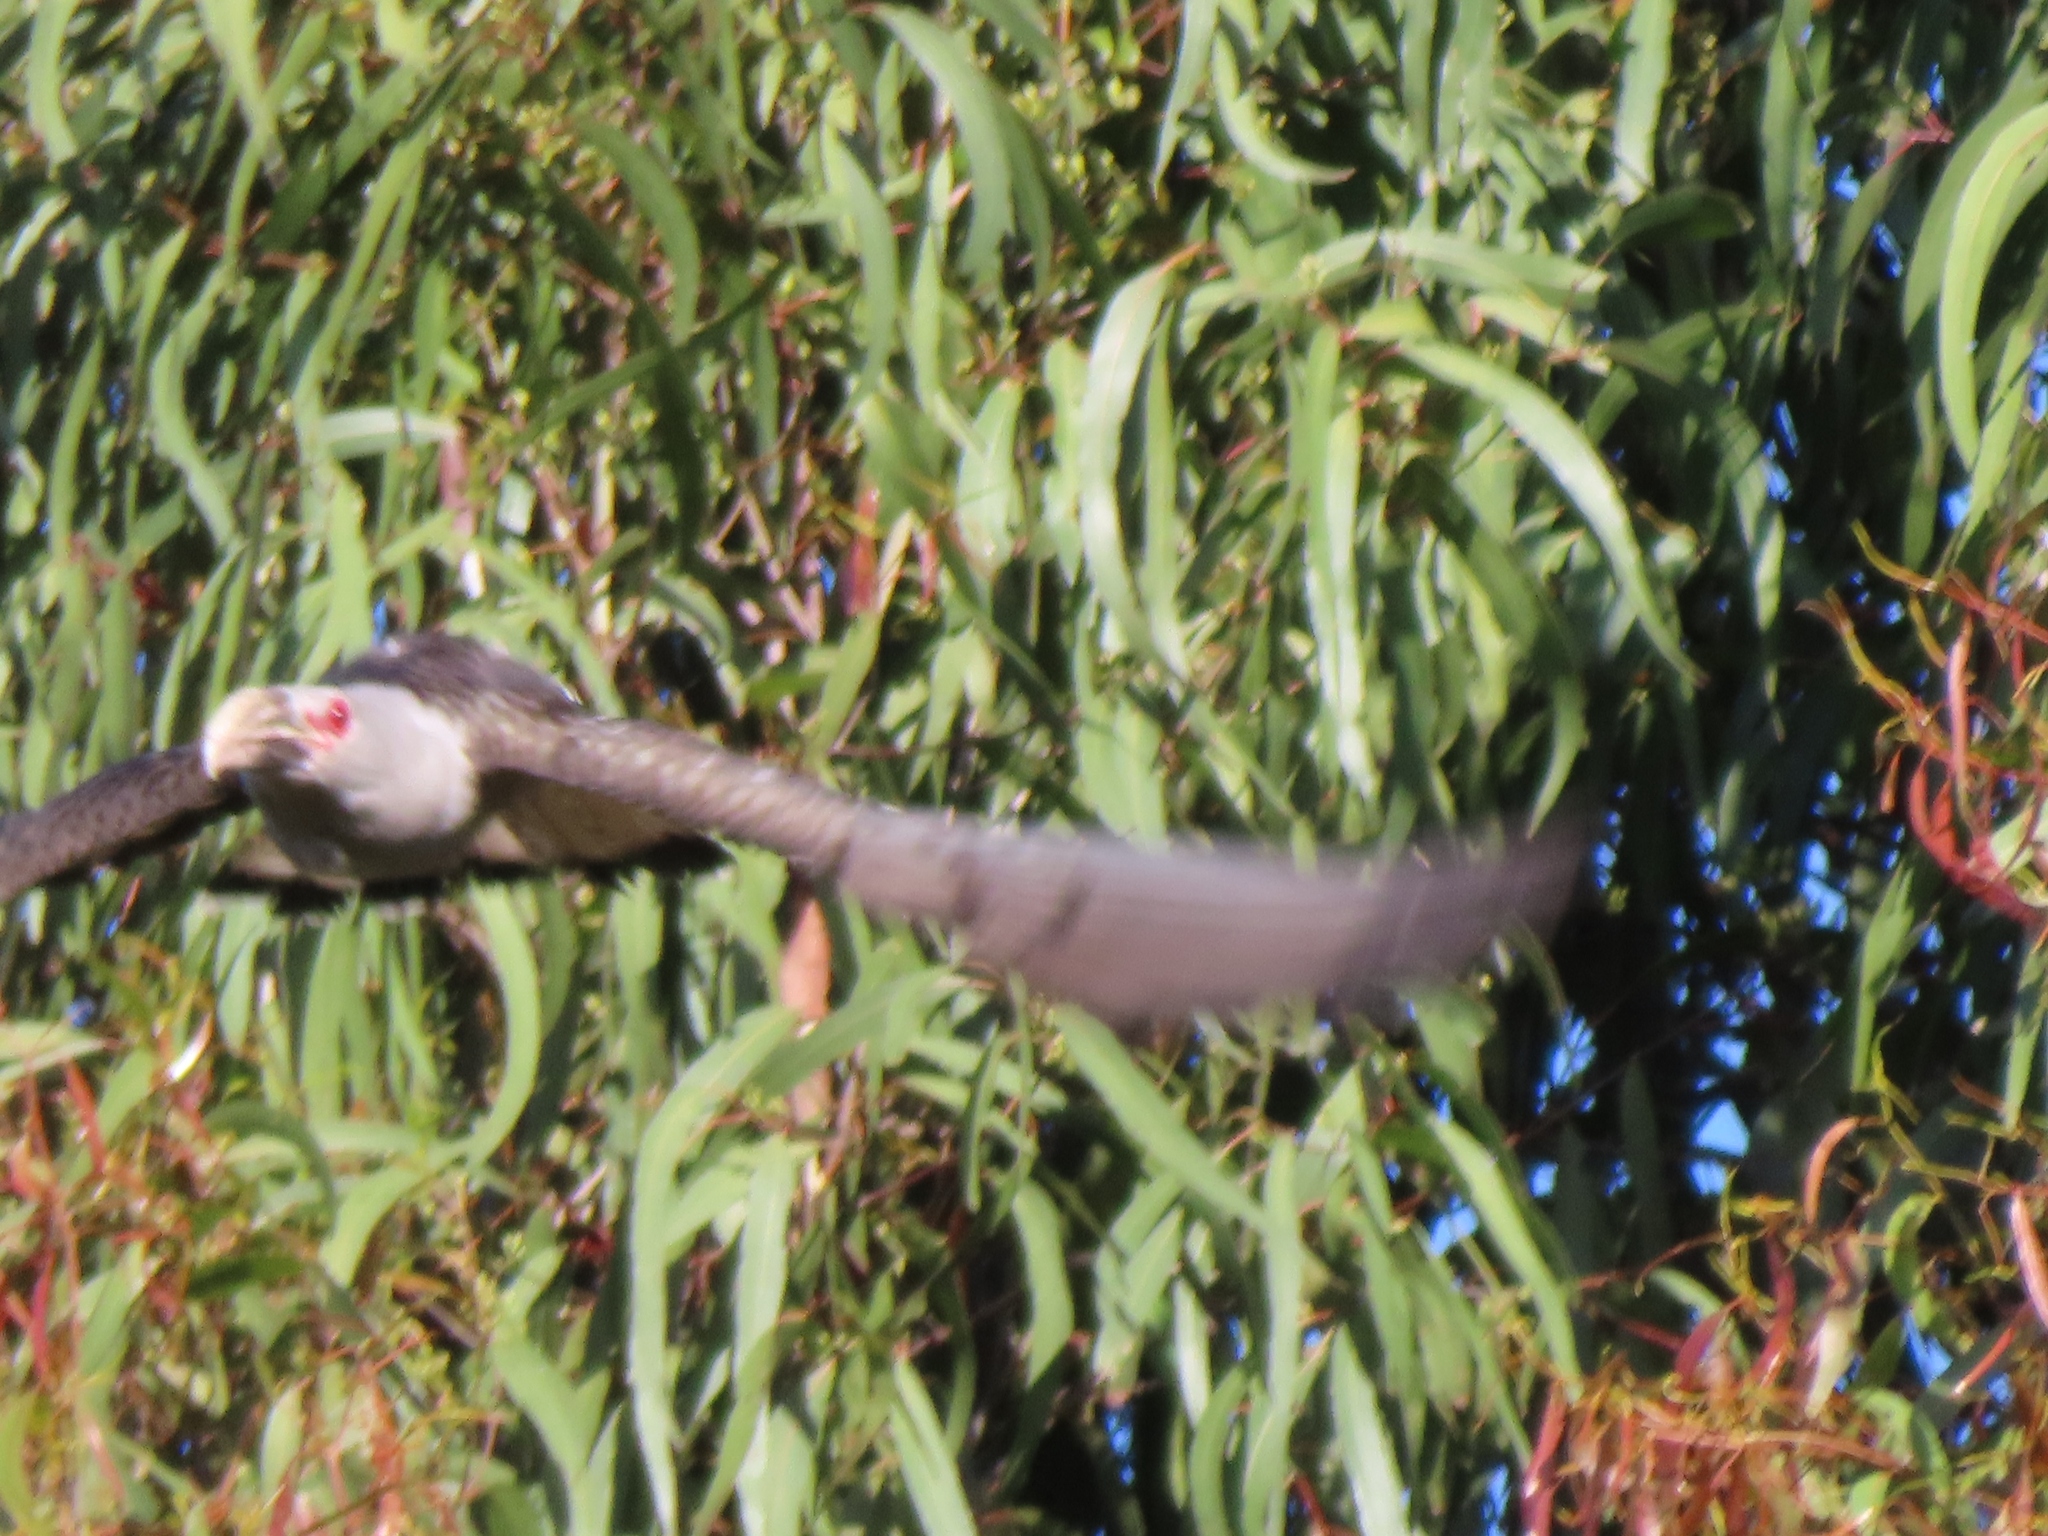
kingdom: Animalia
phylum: Chordata
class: Aves
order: Cuculiformes
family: Cuculidae
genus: Scythrops
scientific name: Scythrops novaehollandiae
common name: Channel-billed cuckoo
